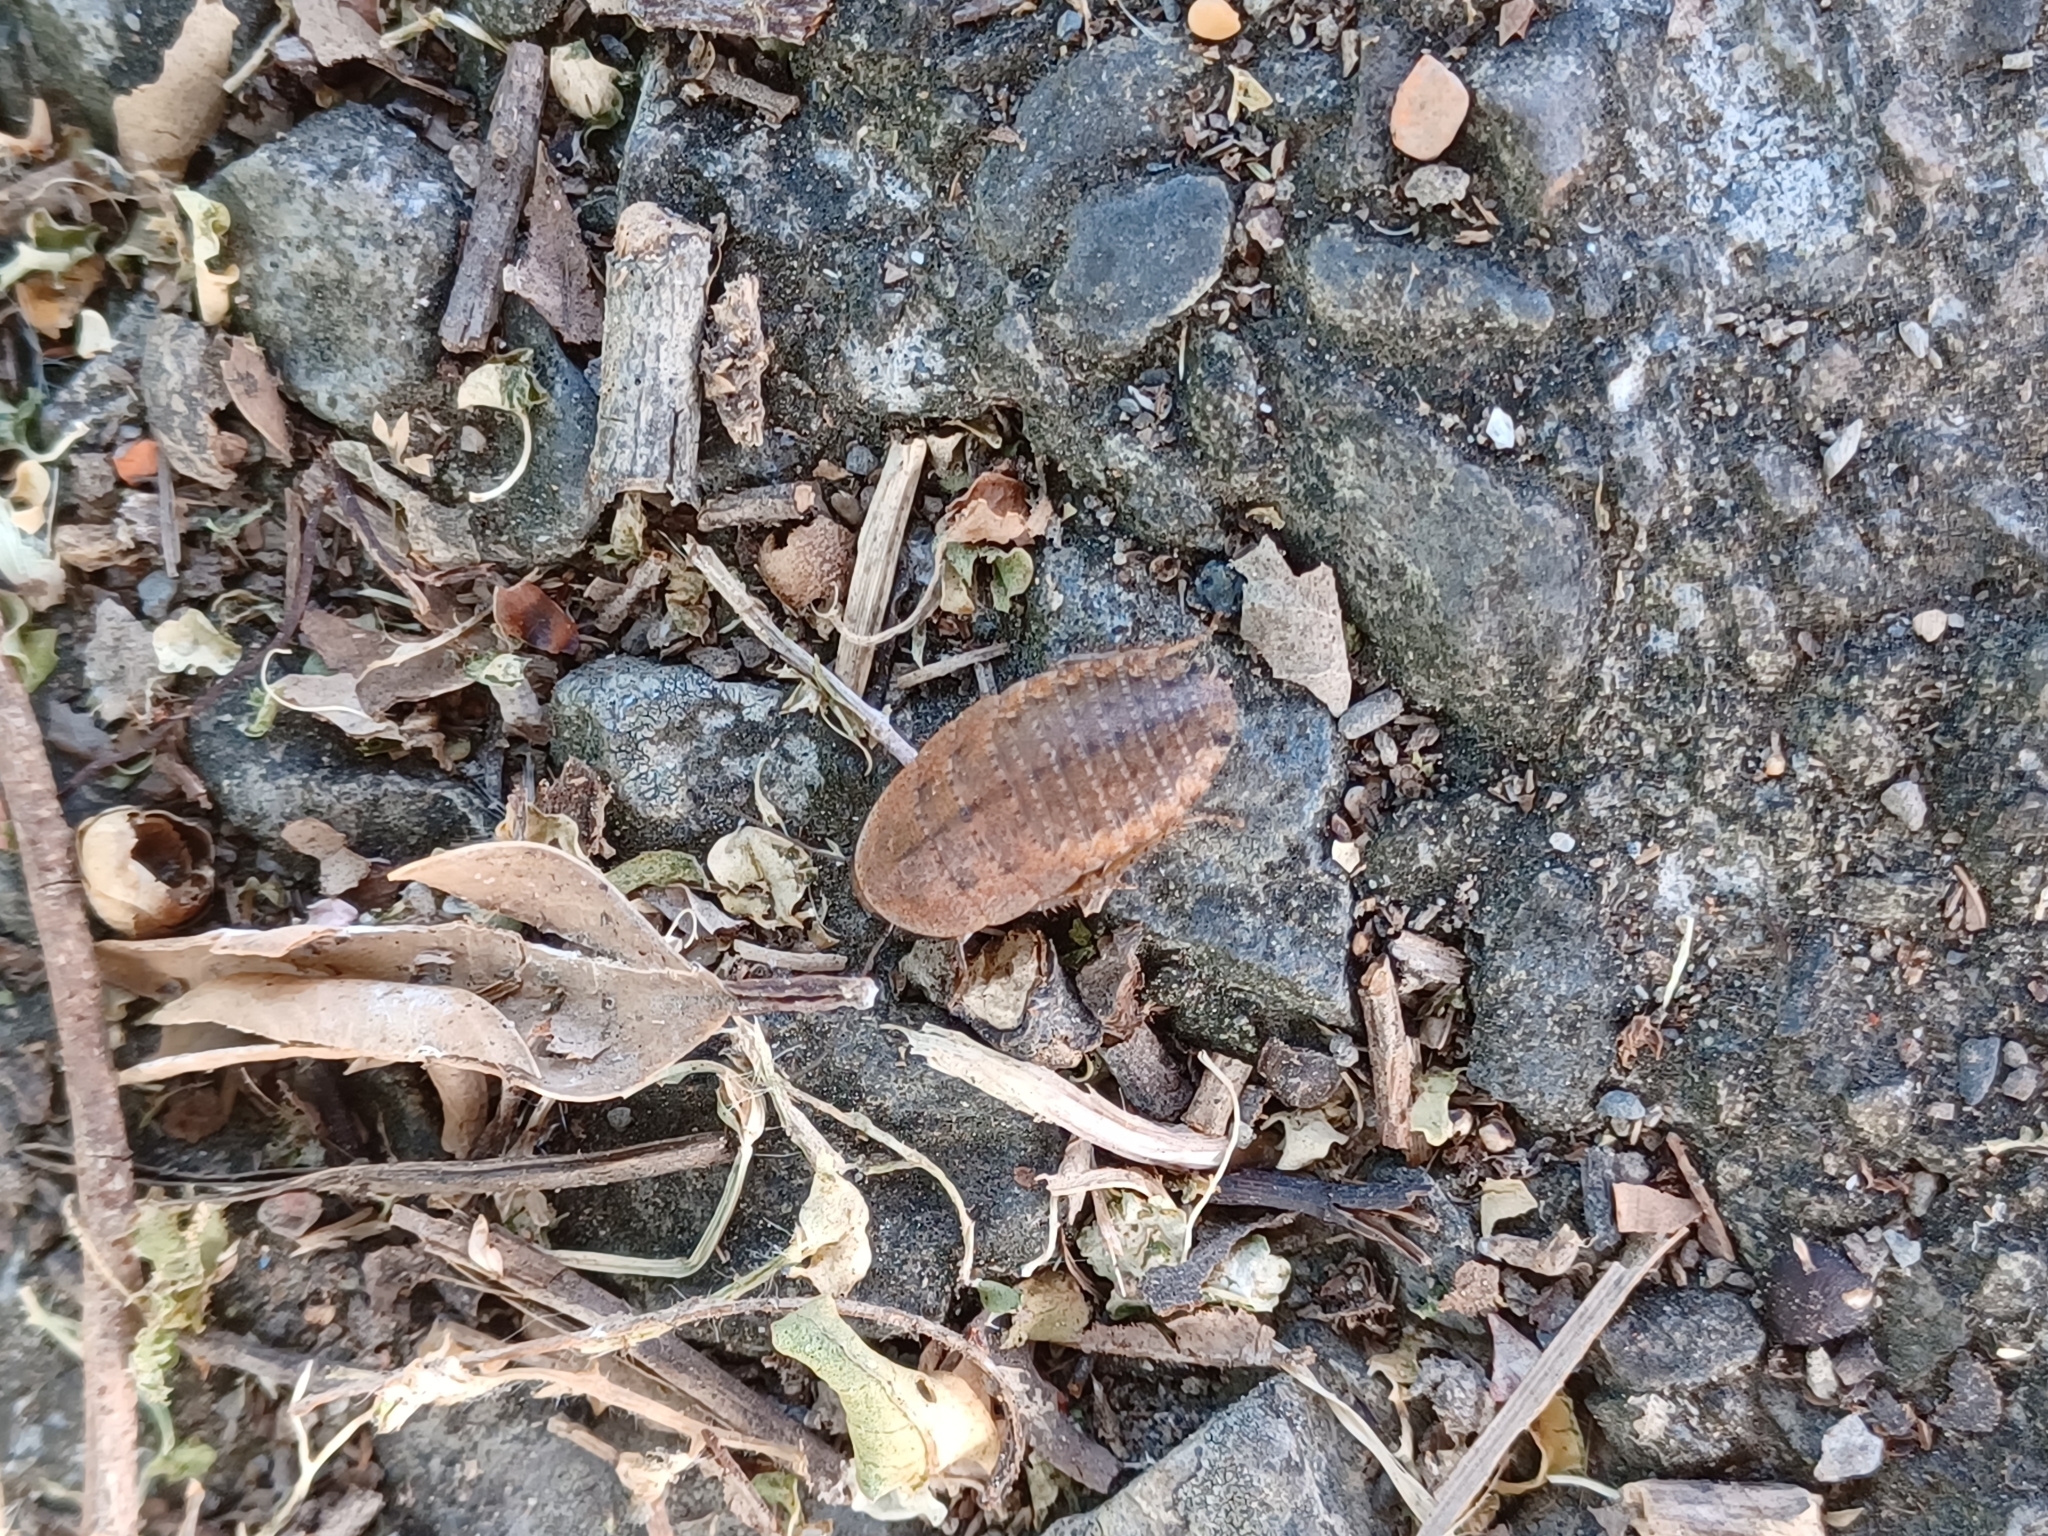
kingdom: Animalia
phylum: Arthropoda
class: Insecta
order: Blattodea
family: Blaberidae
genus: Opisthoplatia
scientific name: Opisthoplatia orientalis
